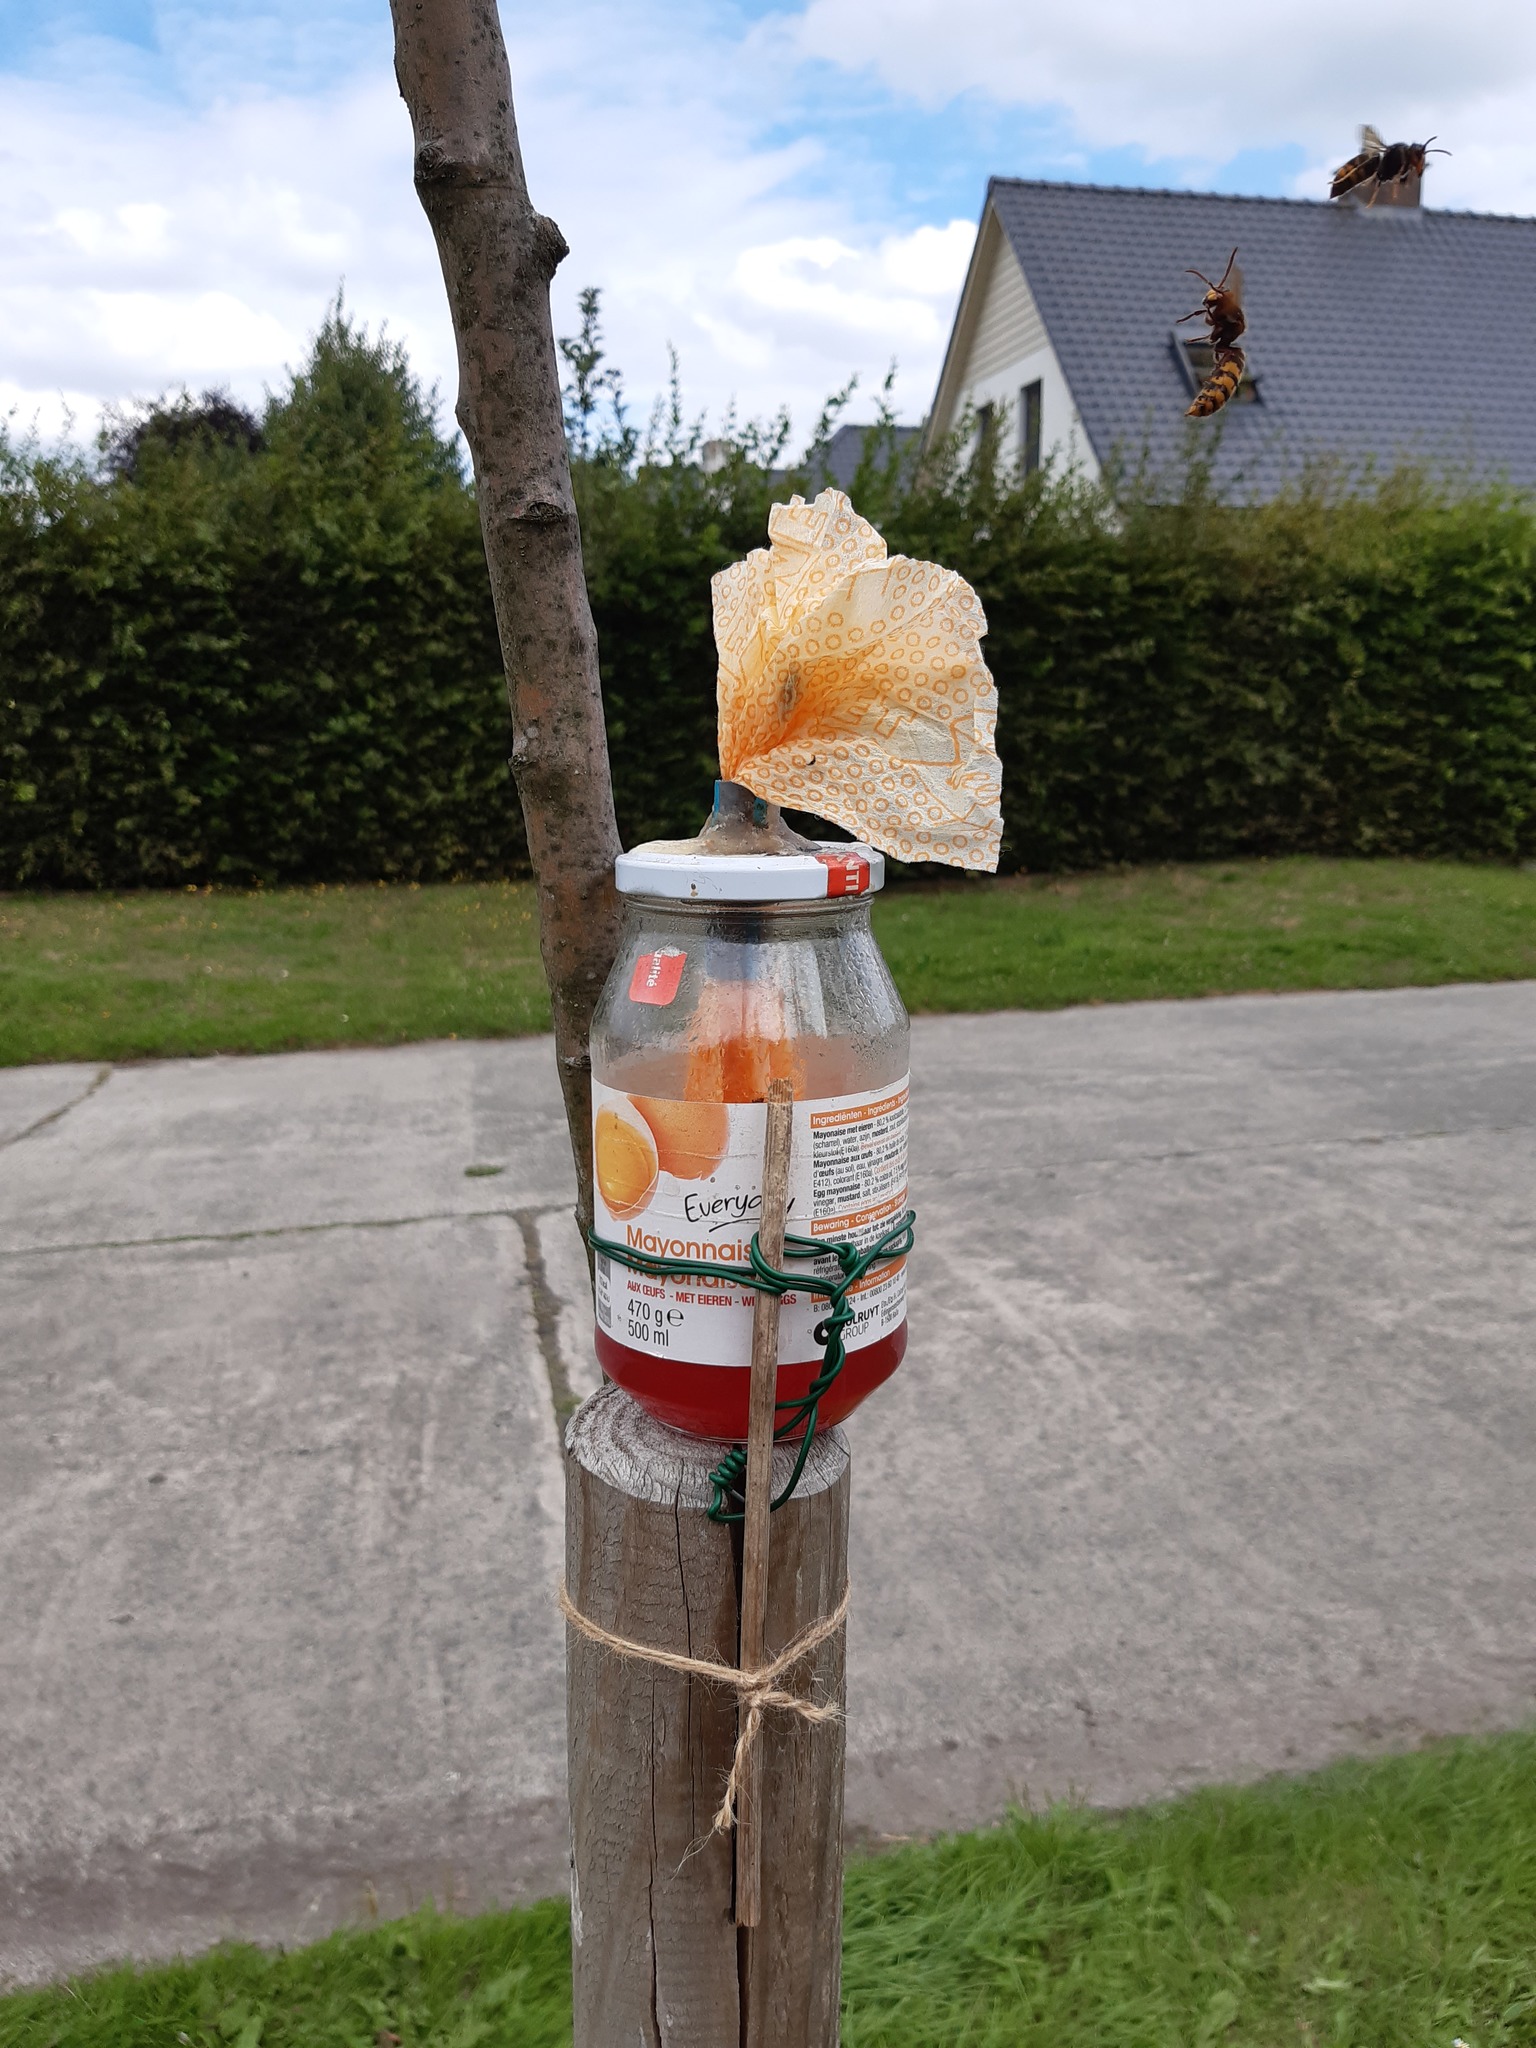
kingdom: Animalia
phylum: Arthropoda
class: Insecta
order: Hymenoptera
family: Vespidae
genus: Vespa
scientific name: Vespa velutina
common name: Asian hornet
